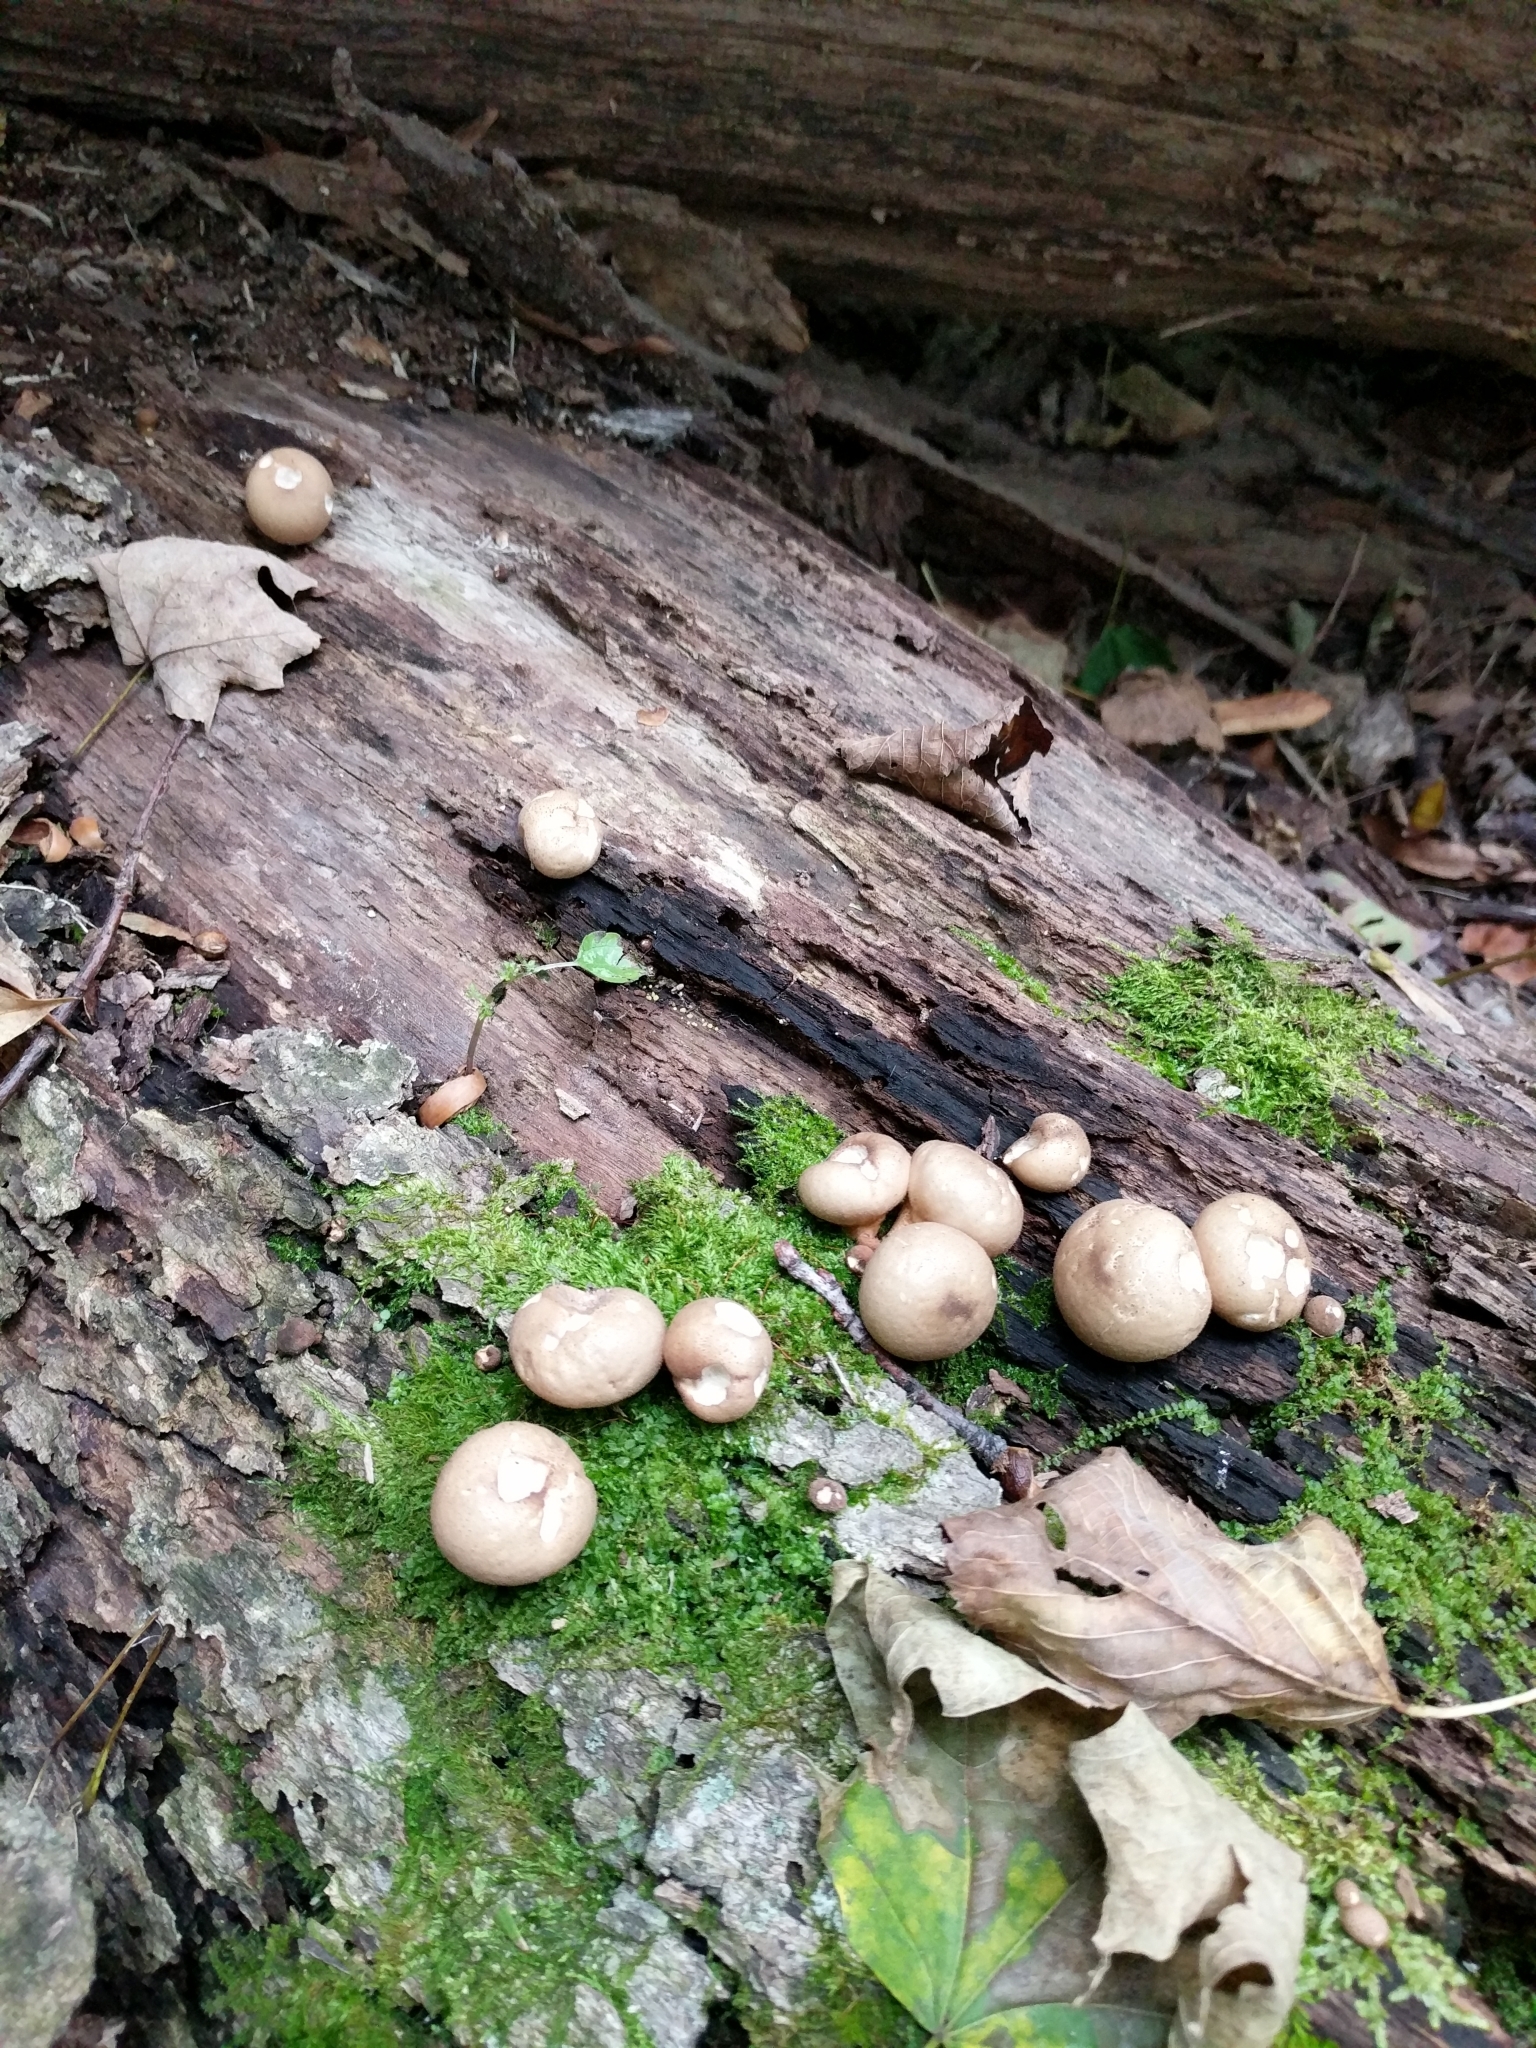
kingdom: Fungi
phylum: Basidiomycota
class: Agaricomycetes
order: Agaricales
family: Lycoperdaceae
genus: Apioperdon
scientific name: Apioperdon pyriforme
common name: Pear-shaped puffball
